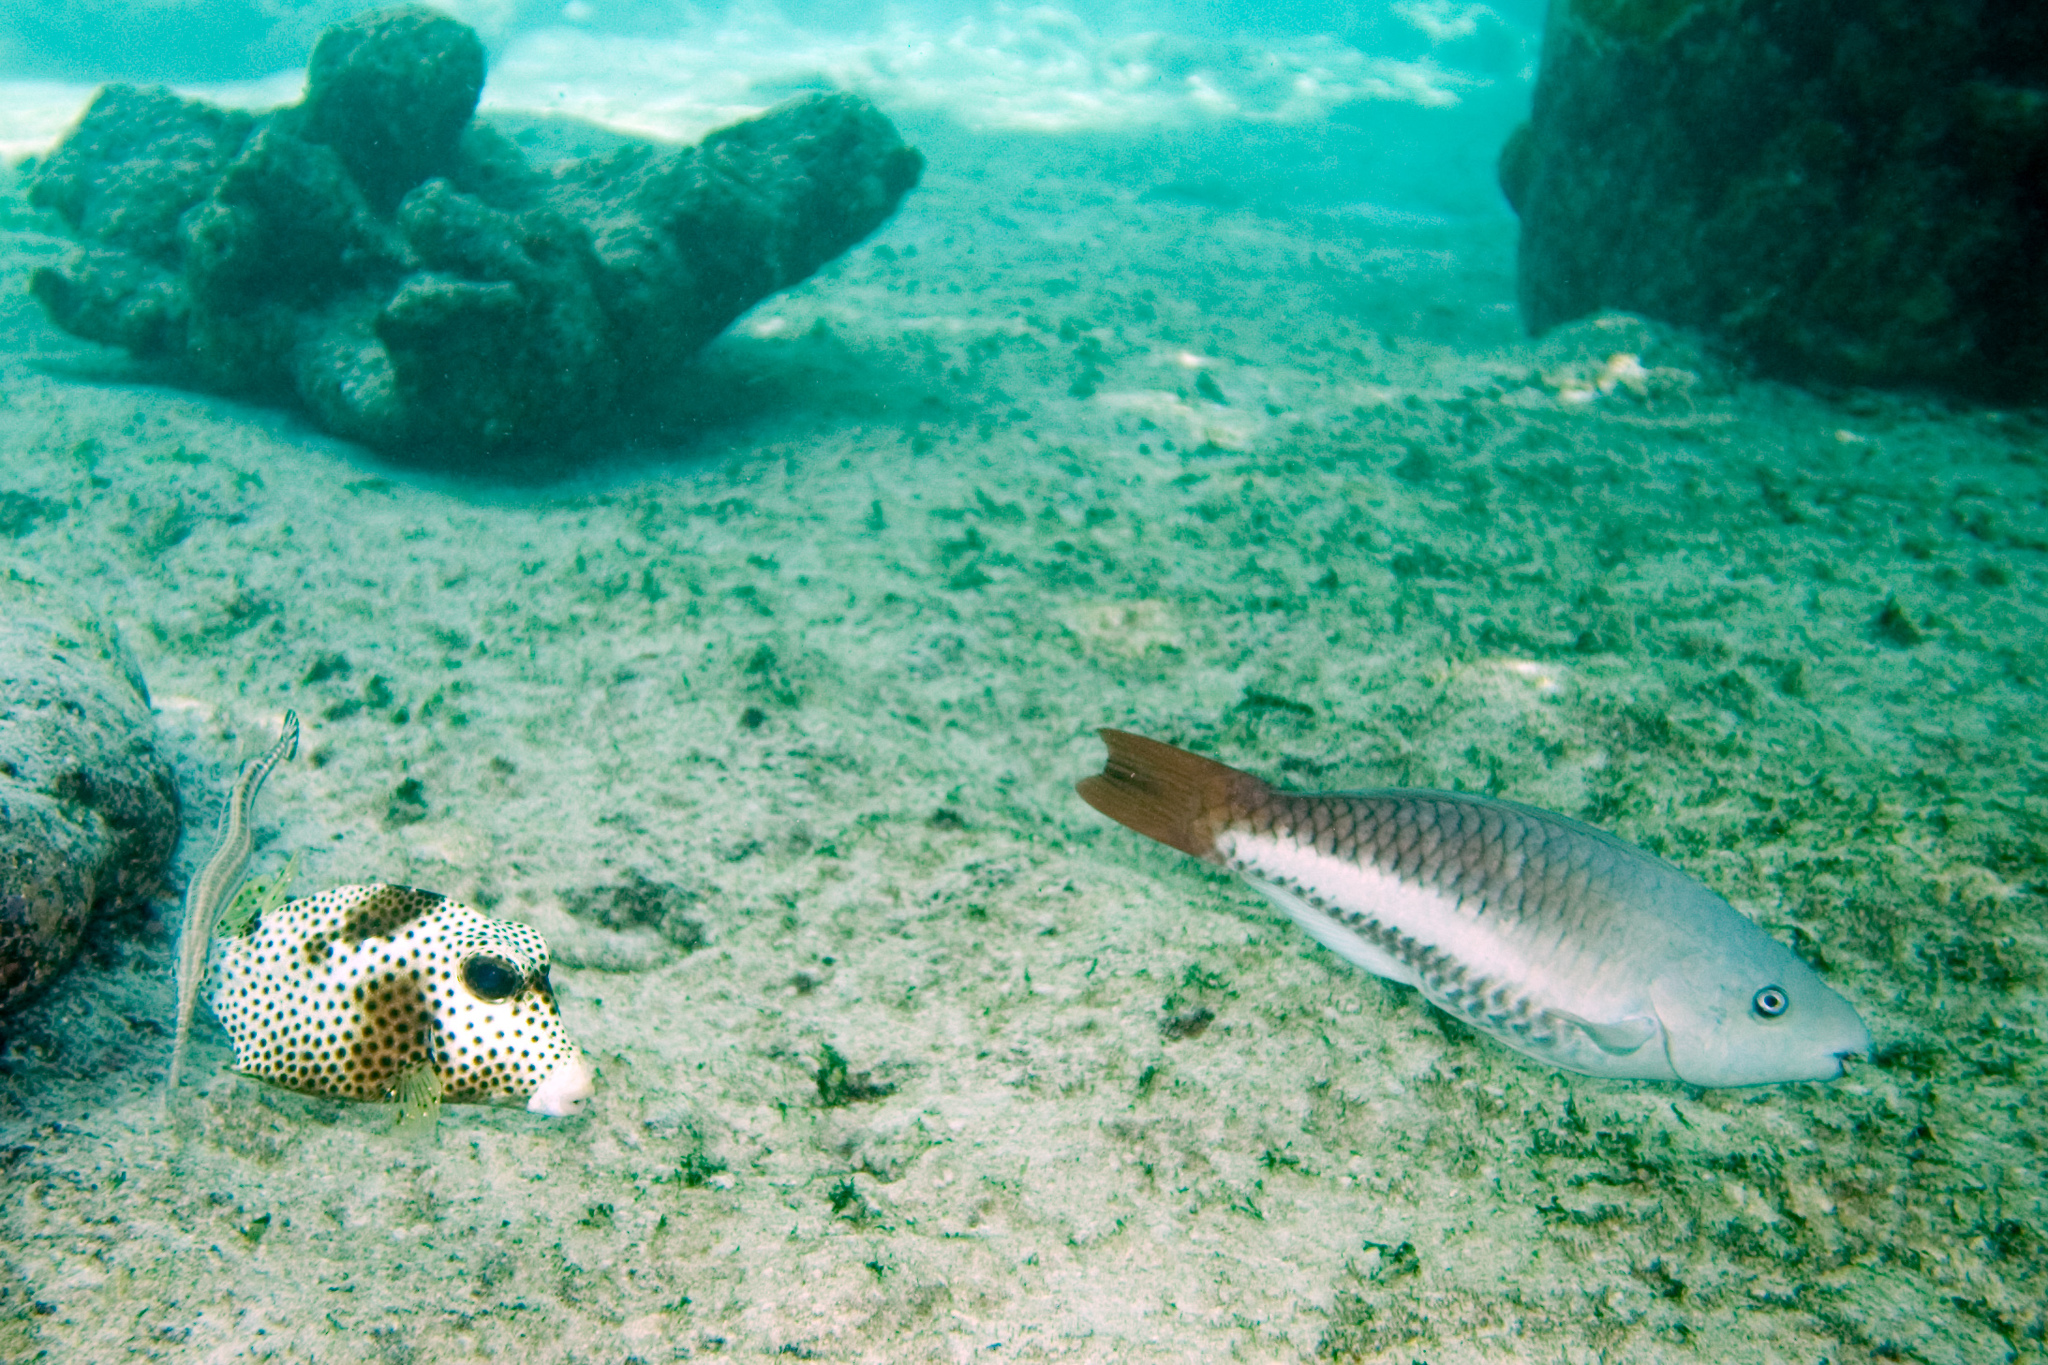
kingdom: Animalia
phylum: Chordata
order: Perciformes
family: Scaridae
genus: Scarus
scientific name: Scarus vetula
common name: Queen parrotfish
